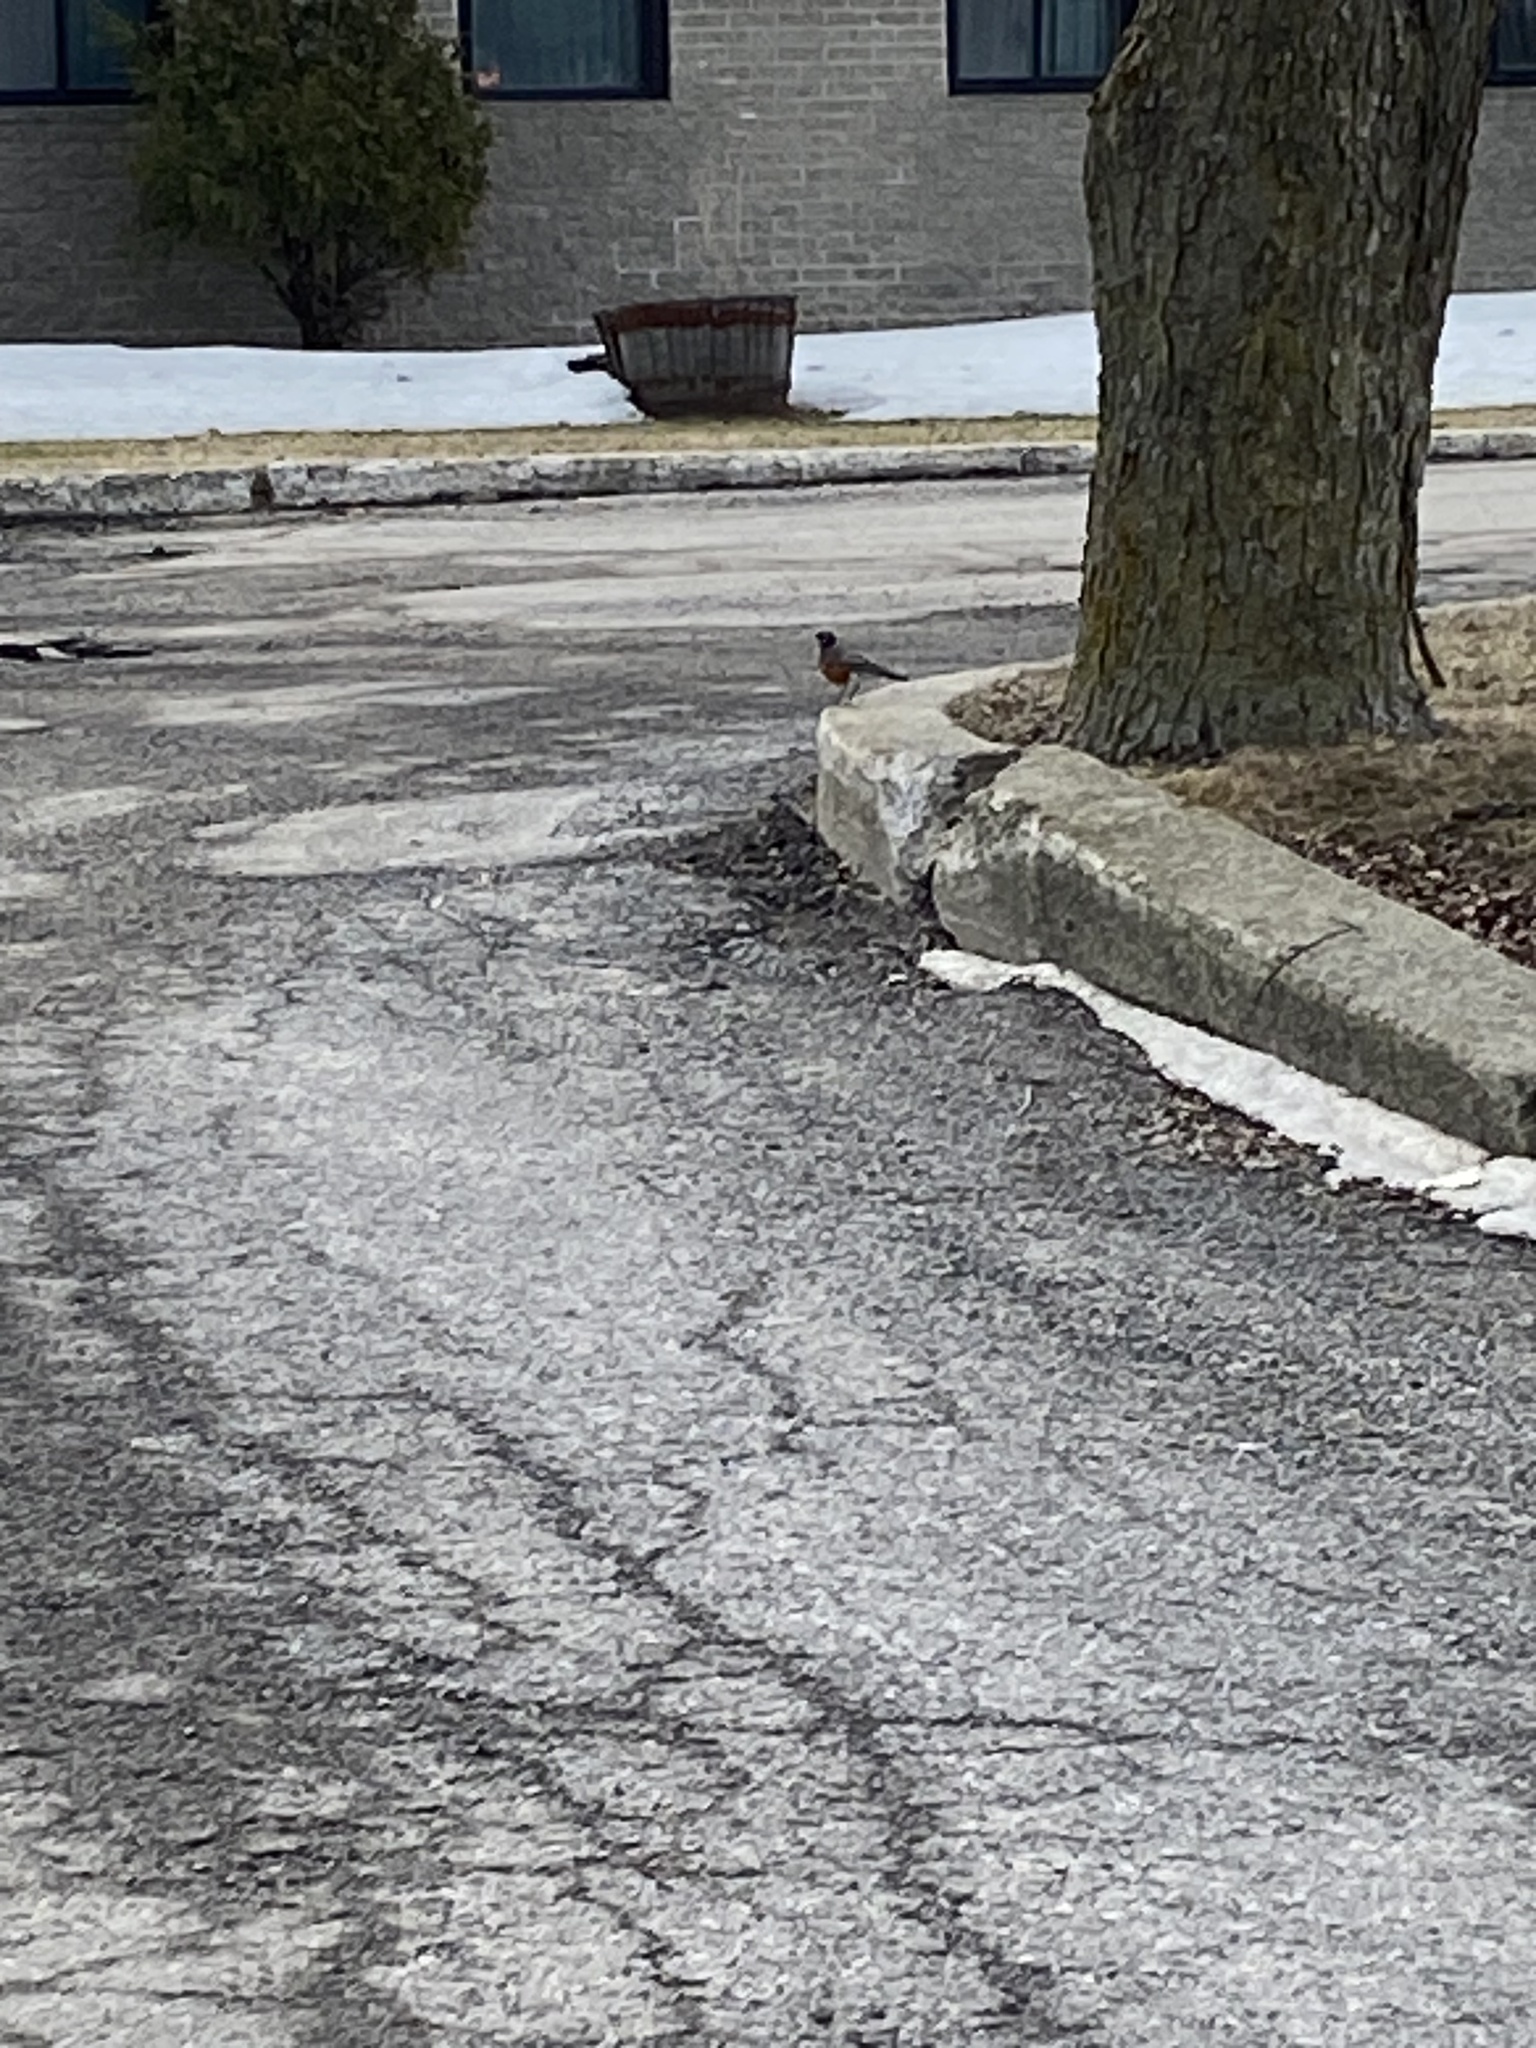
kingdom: Animalia
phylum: Chordata
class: Aves
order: Passeriformes
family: Turdidae
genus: Turdus
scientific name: Turdus migratorius
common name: American robin
